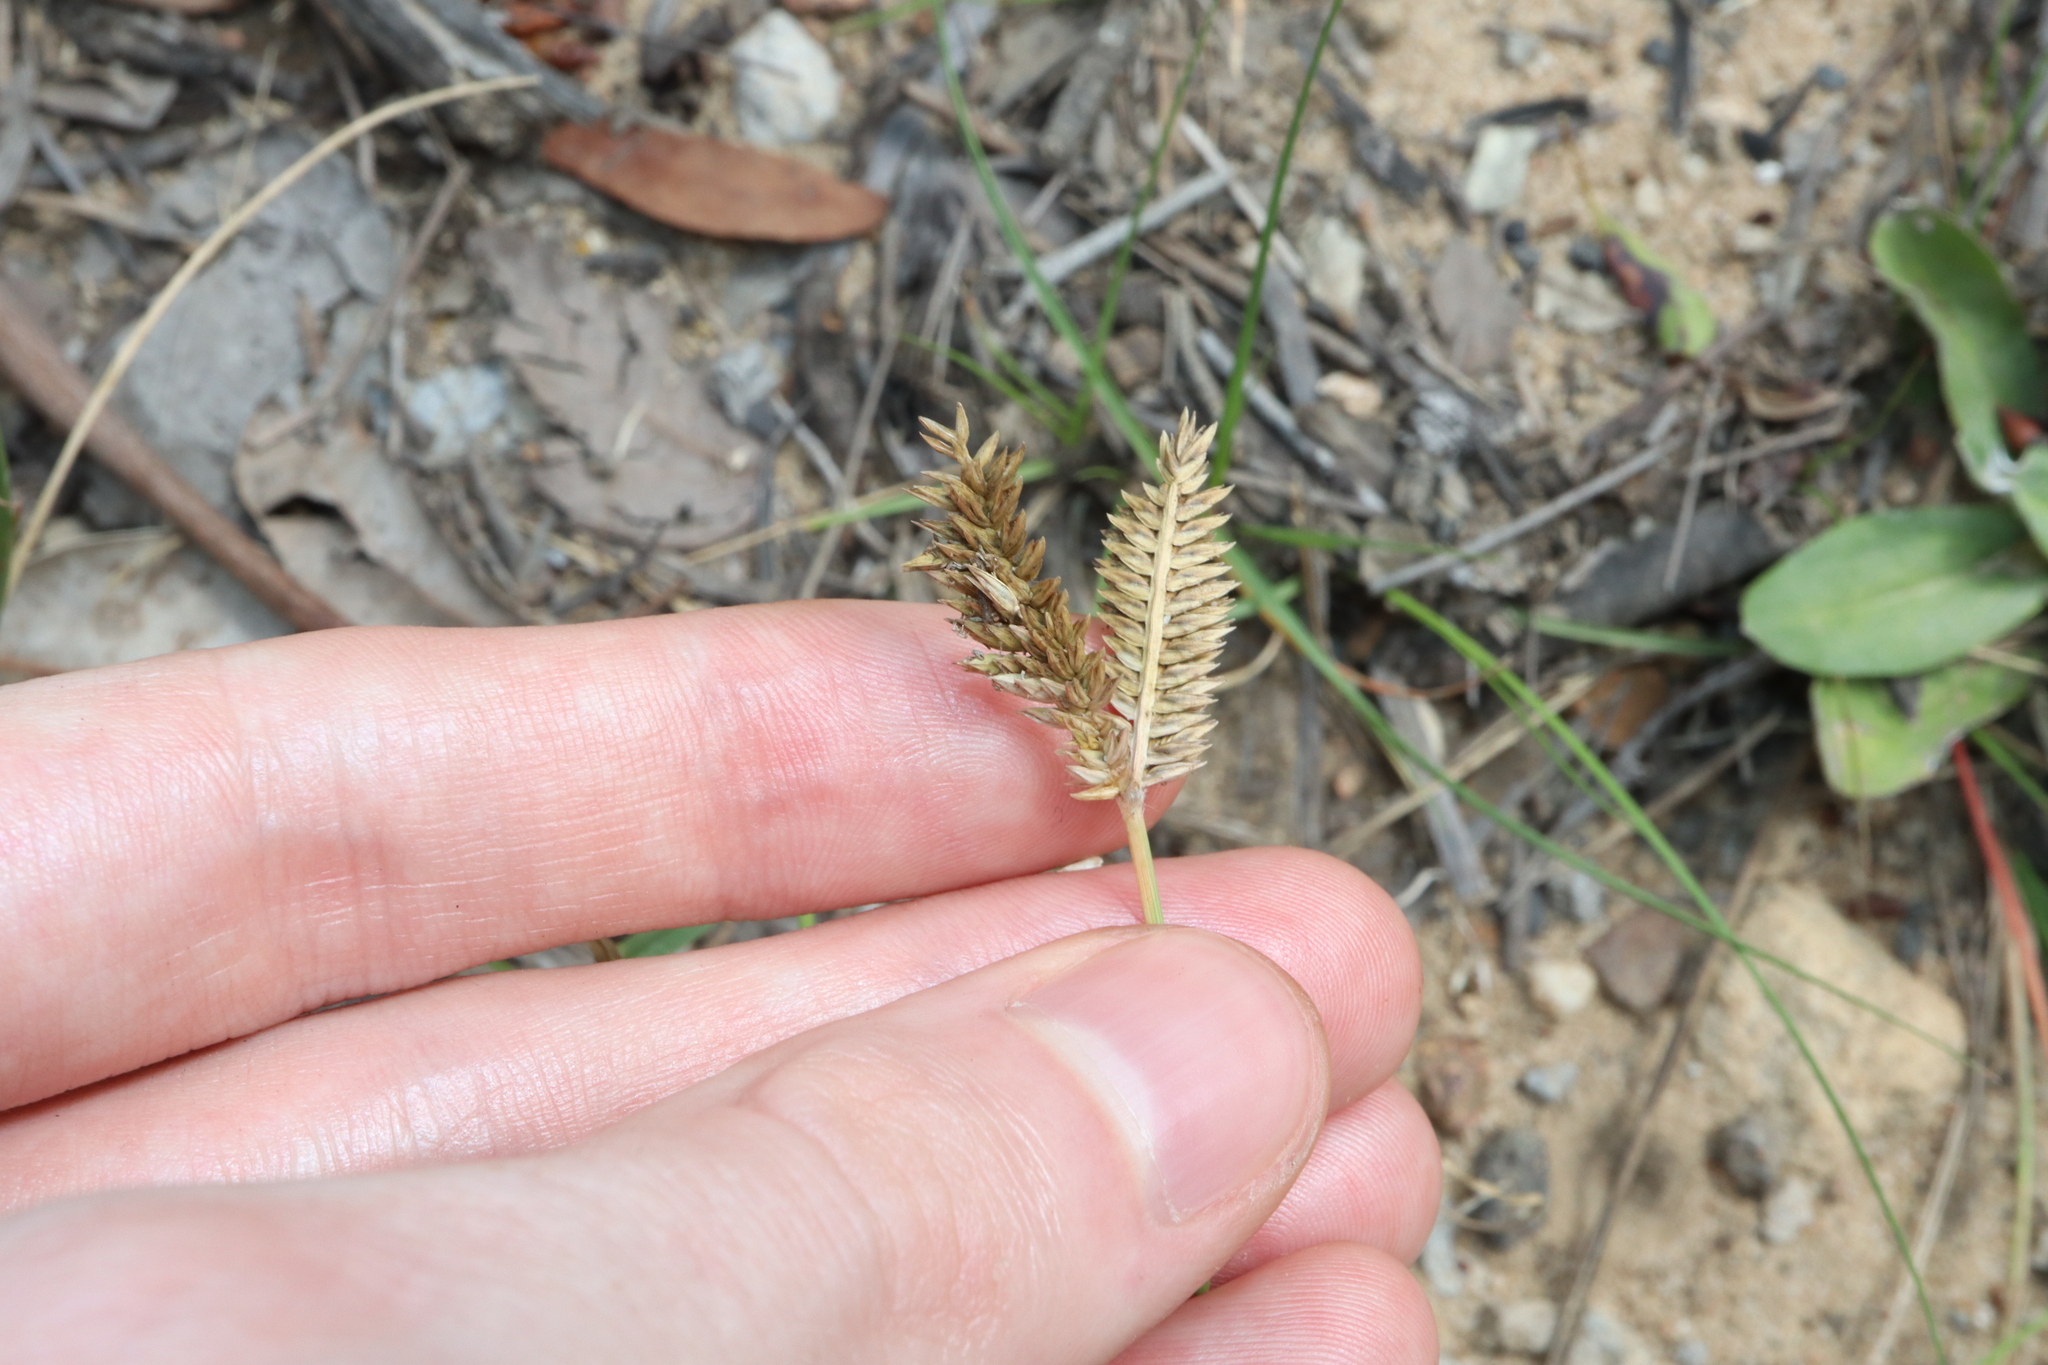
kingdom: Plantae
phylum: Tracheophyta
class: Liliopsida
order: Poales
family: Poaceae
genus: Eleusine
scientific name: Eleusine tristachya
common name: American yard-grass
